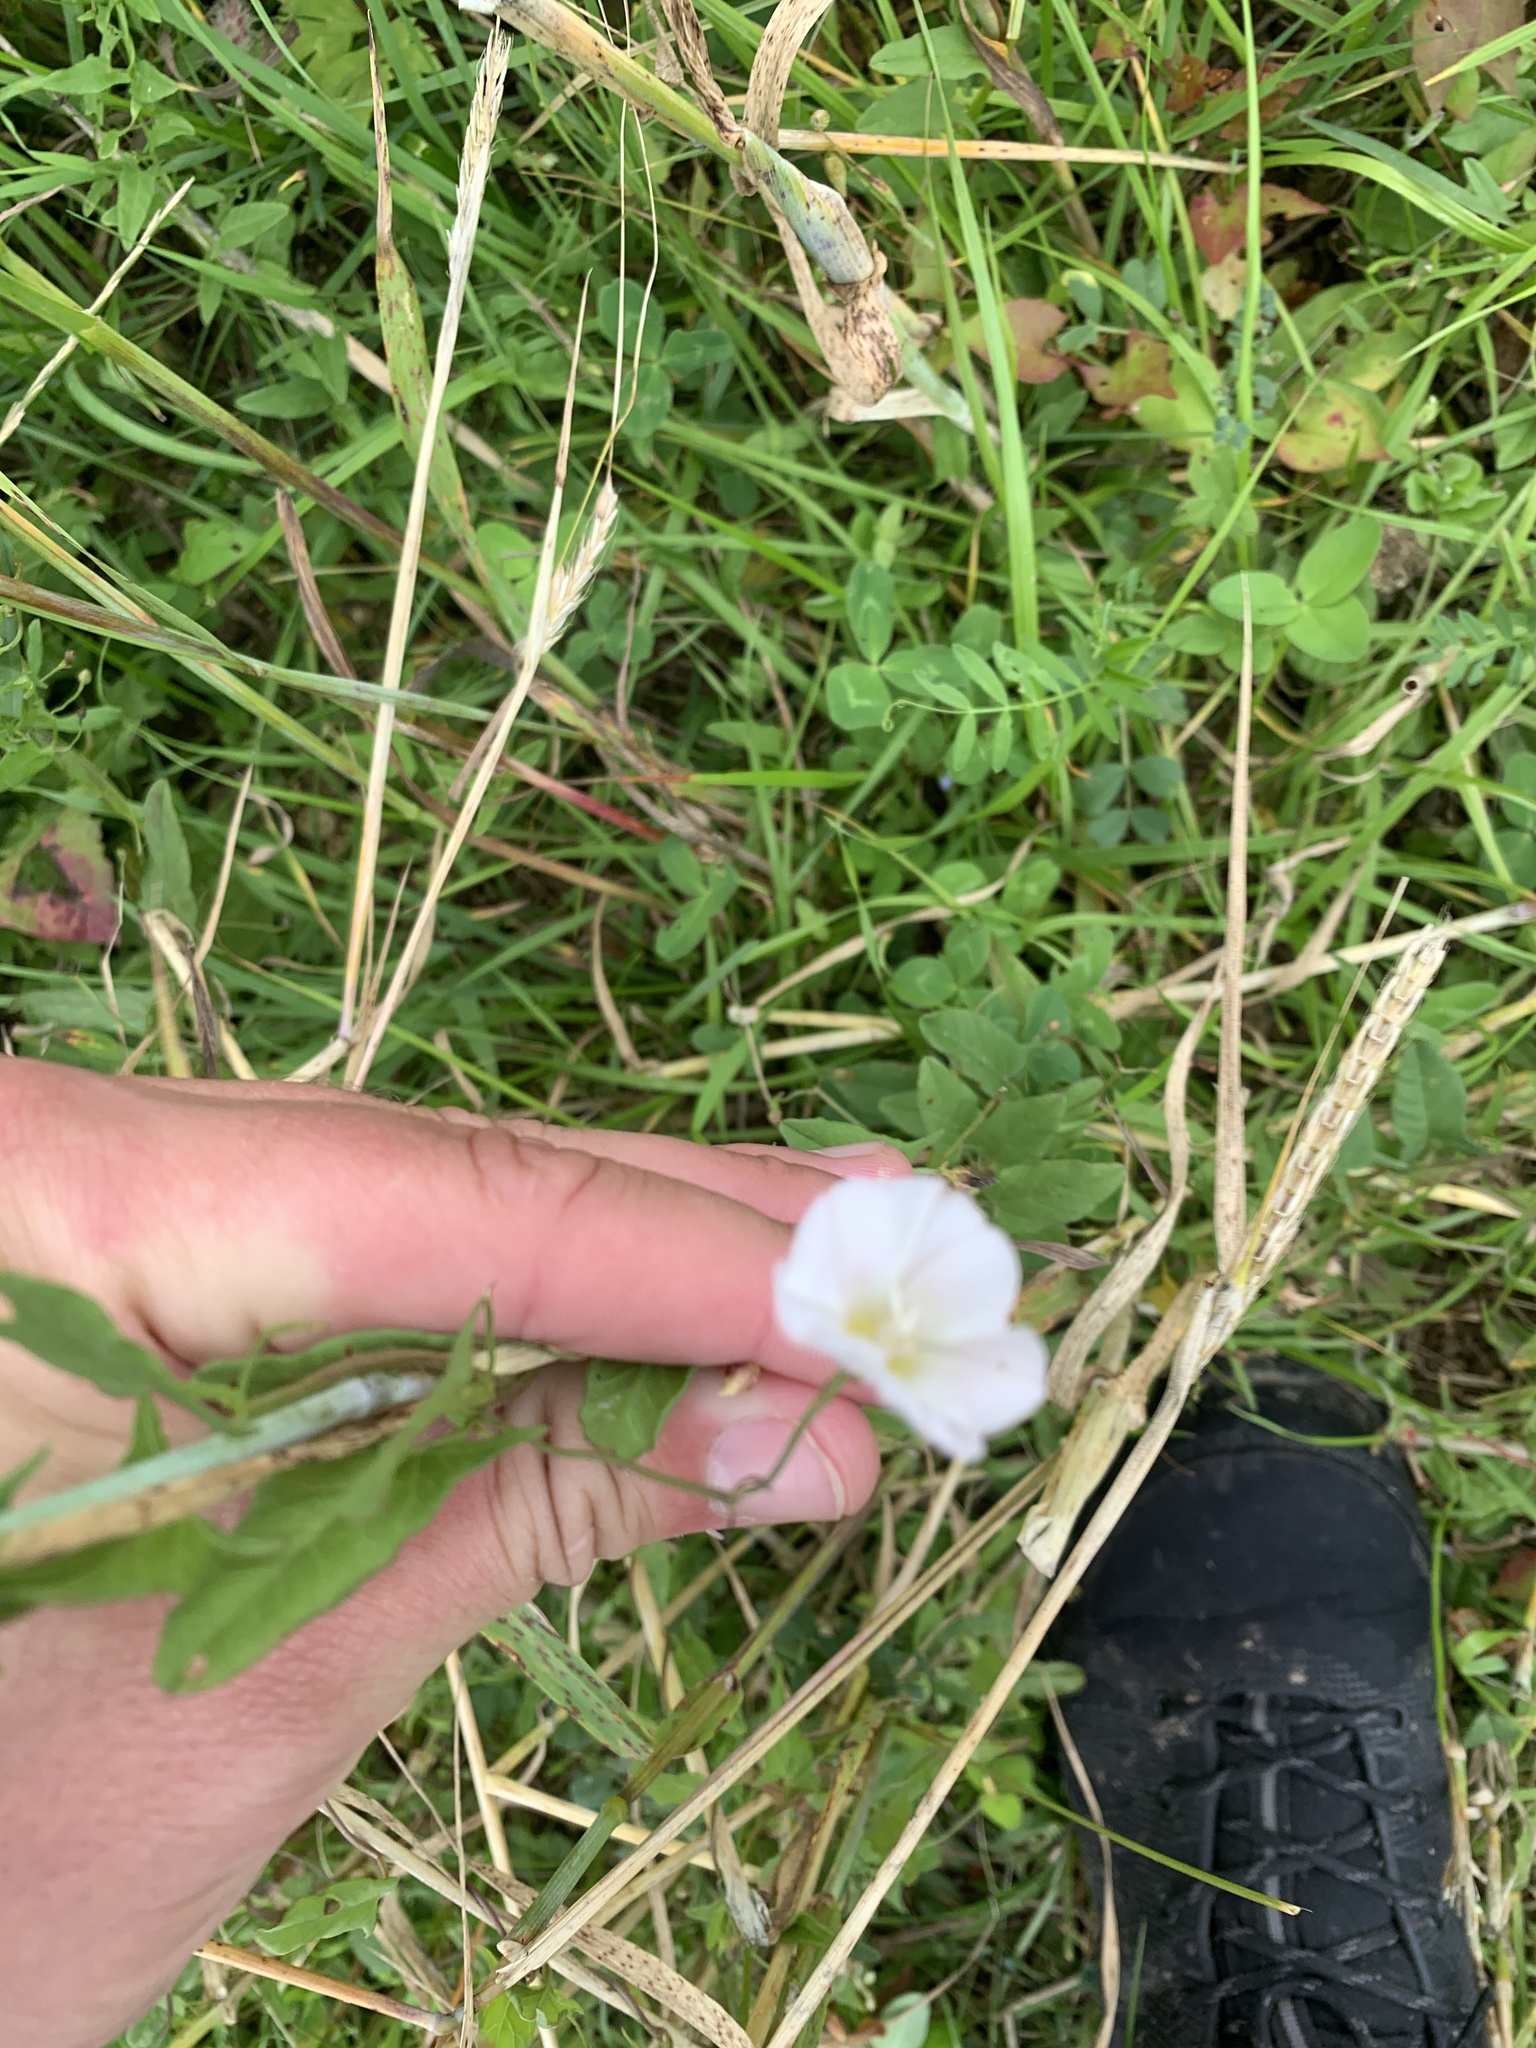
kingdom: Plantae
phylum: Tracheophyta
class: Magnoliopsida
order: Solanales
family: Convolvulaceae
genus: Convolvulus
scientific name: Convolvulus arvensis
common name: Field bindweed
